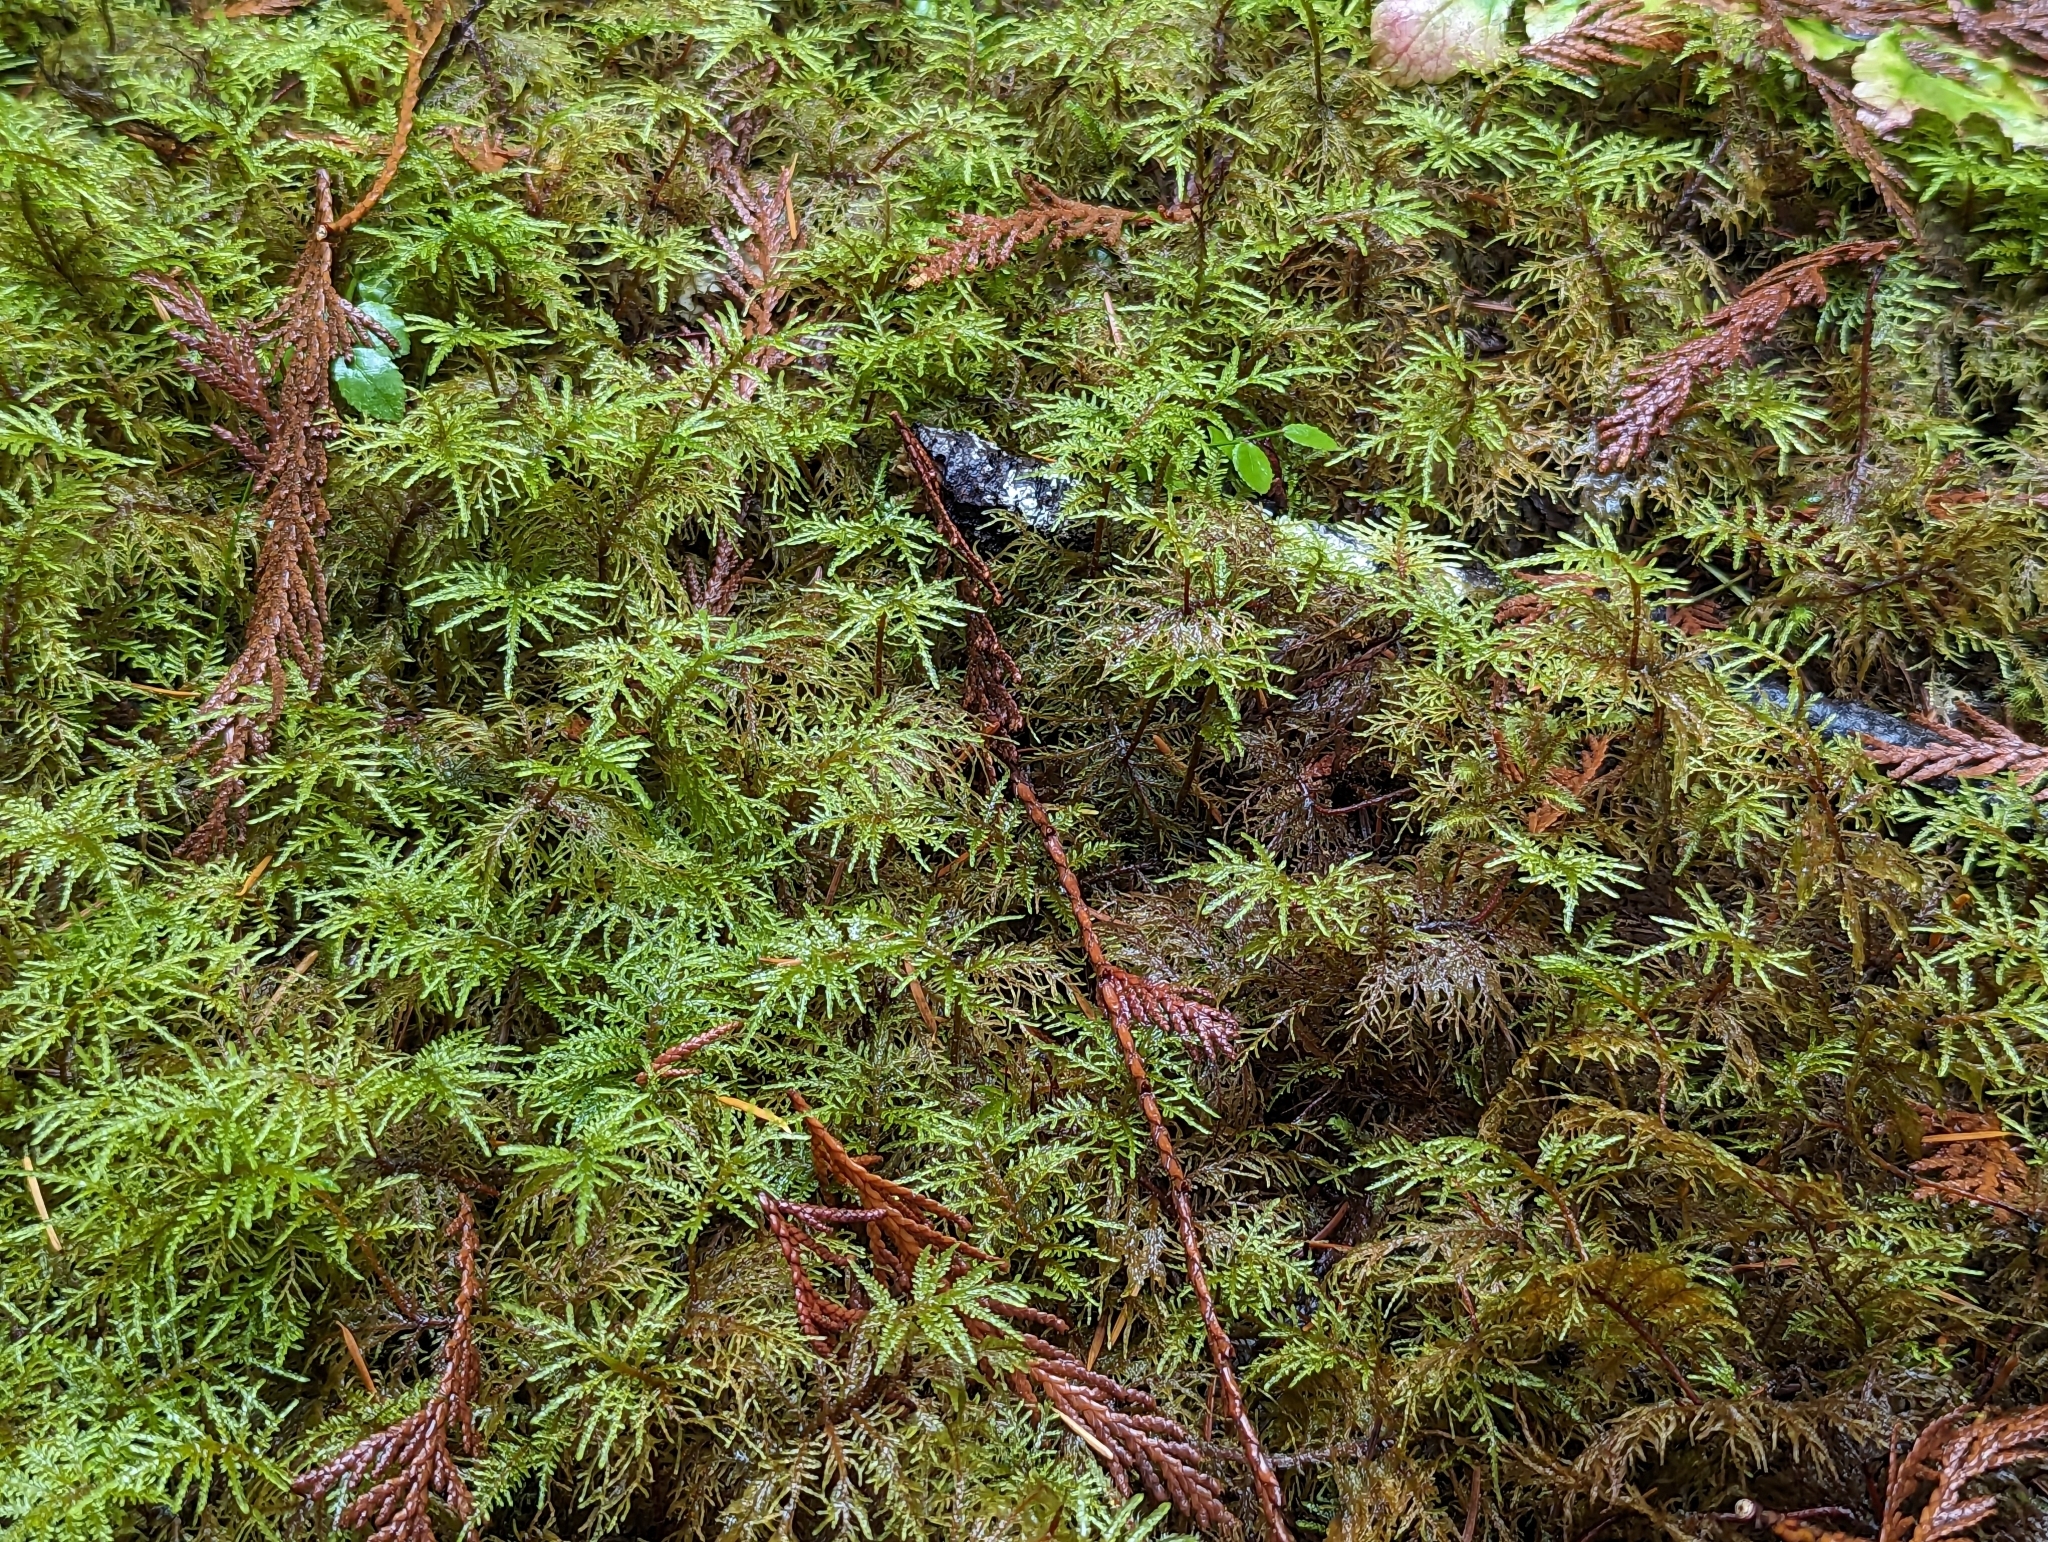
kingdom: Plantae
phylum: Bryophyta
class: Bryopsida
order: Hypnales
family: Hylocomiaceae
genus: Hylocomium
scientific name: Hylocomium splendens
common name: Stairstep moss
